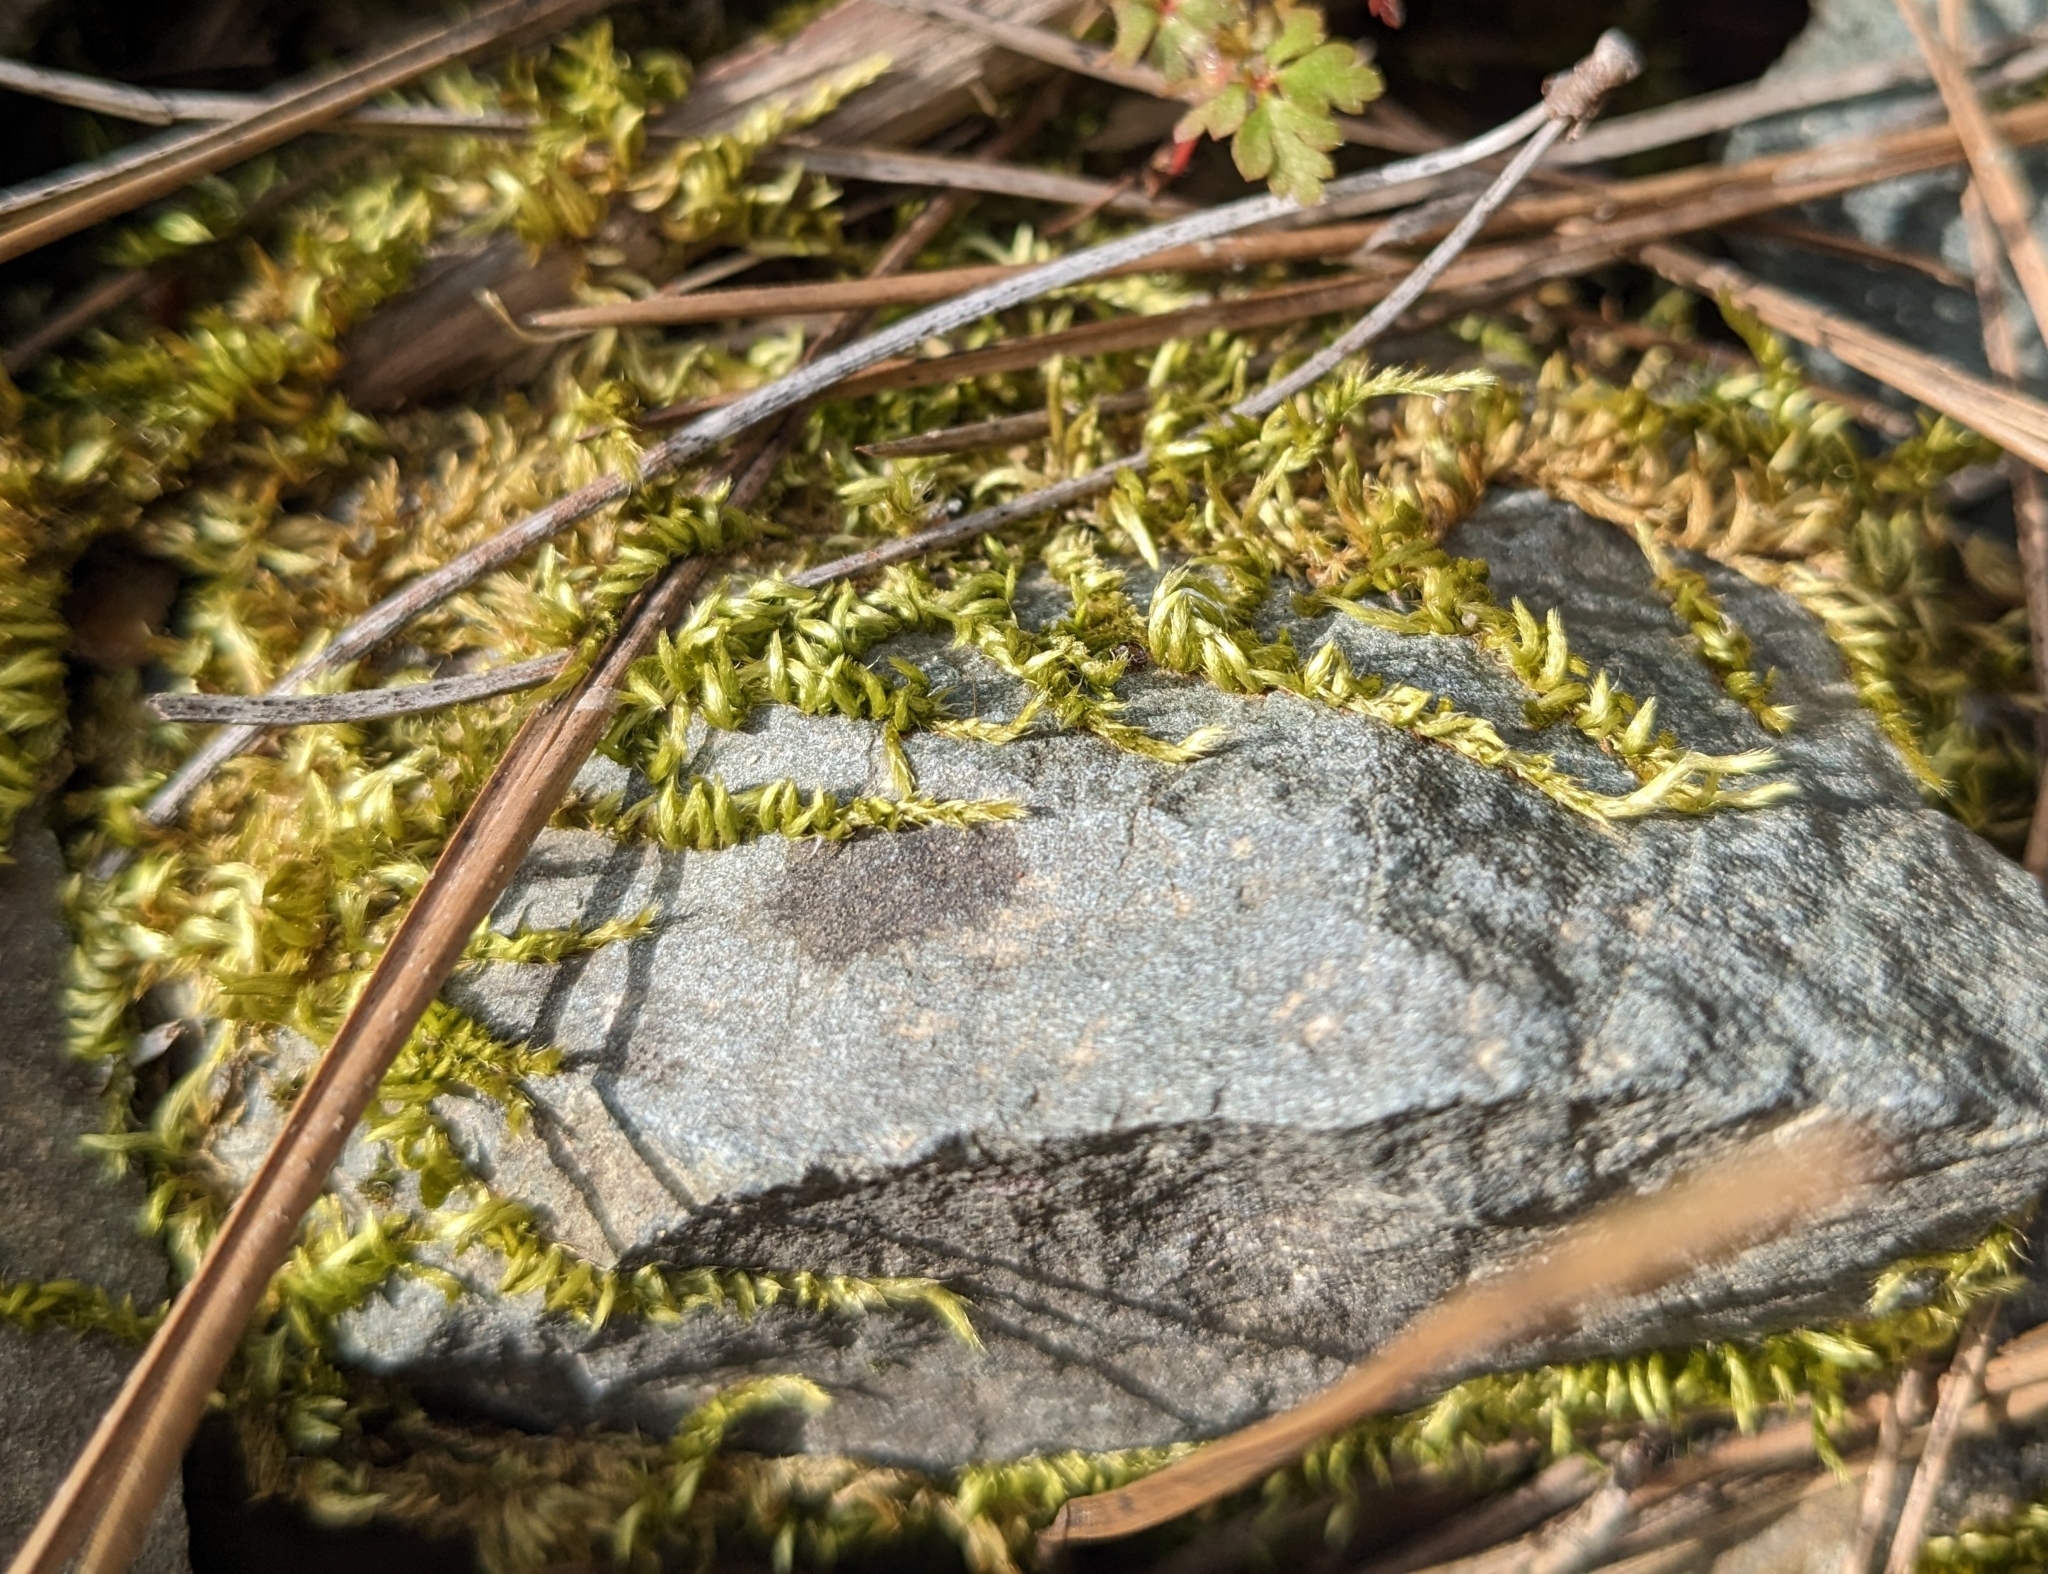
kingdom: Plantae
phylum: Bryophyta
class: Bryopsida
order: Hypnales
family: Brachytheciaceae
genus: Homalothecium
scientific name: Homalothecium sericeum
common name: Silky wall feather-moss
